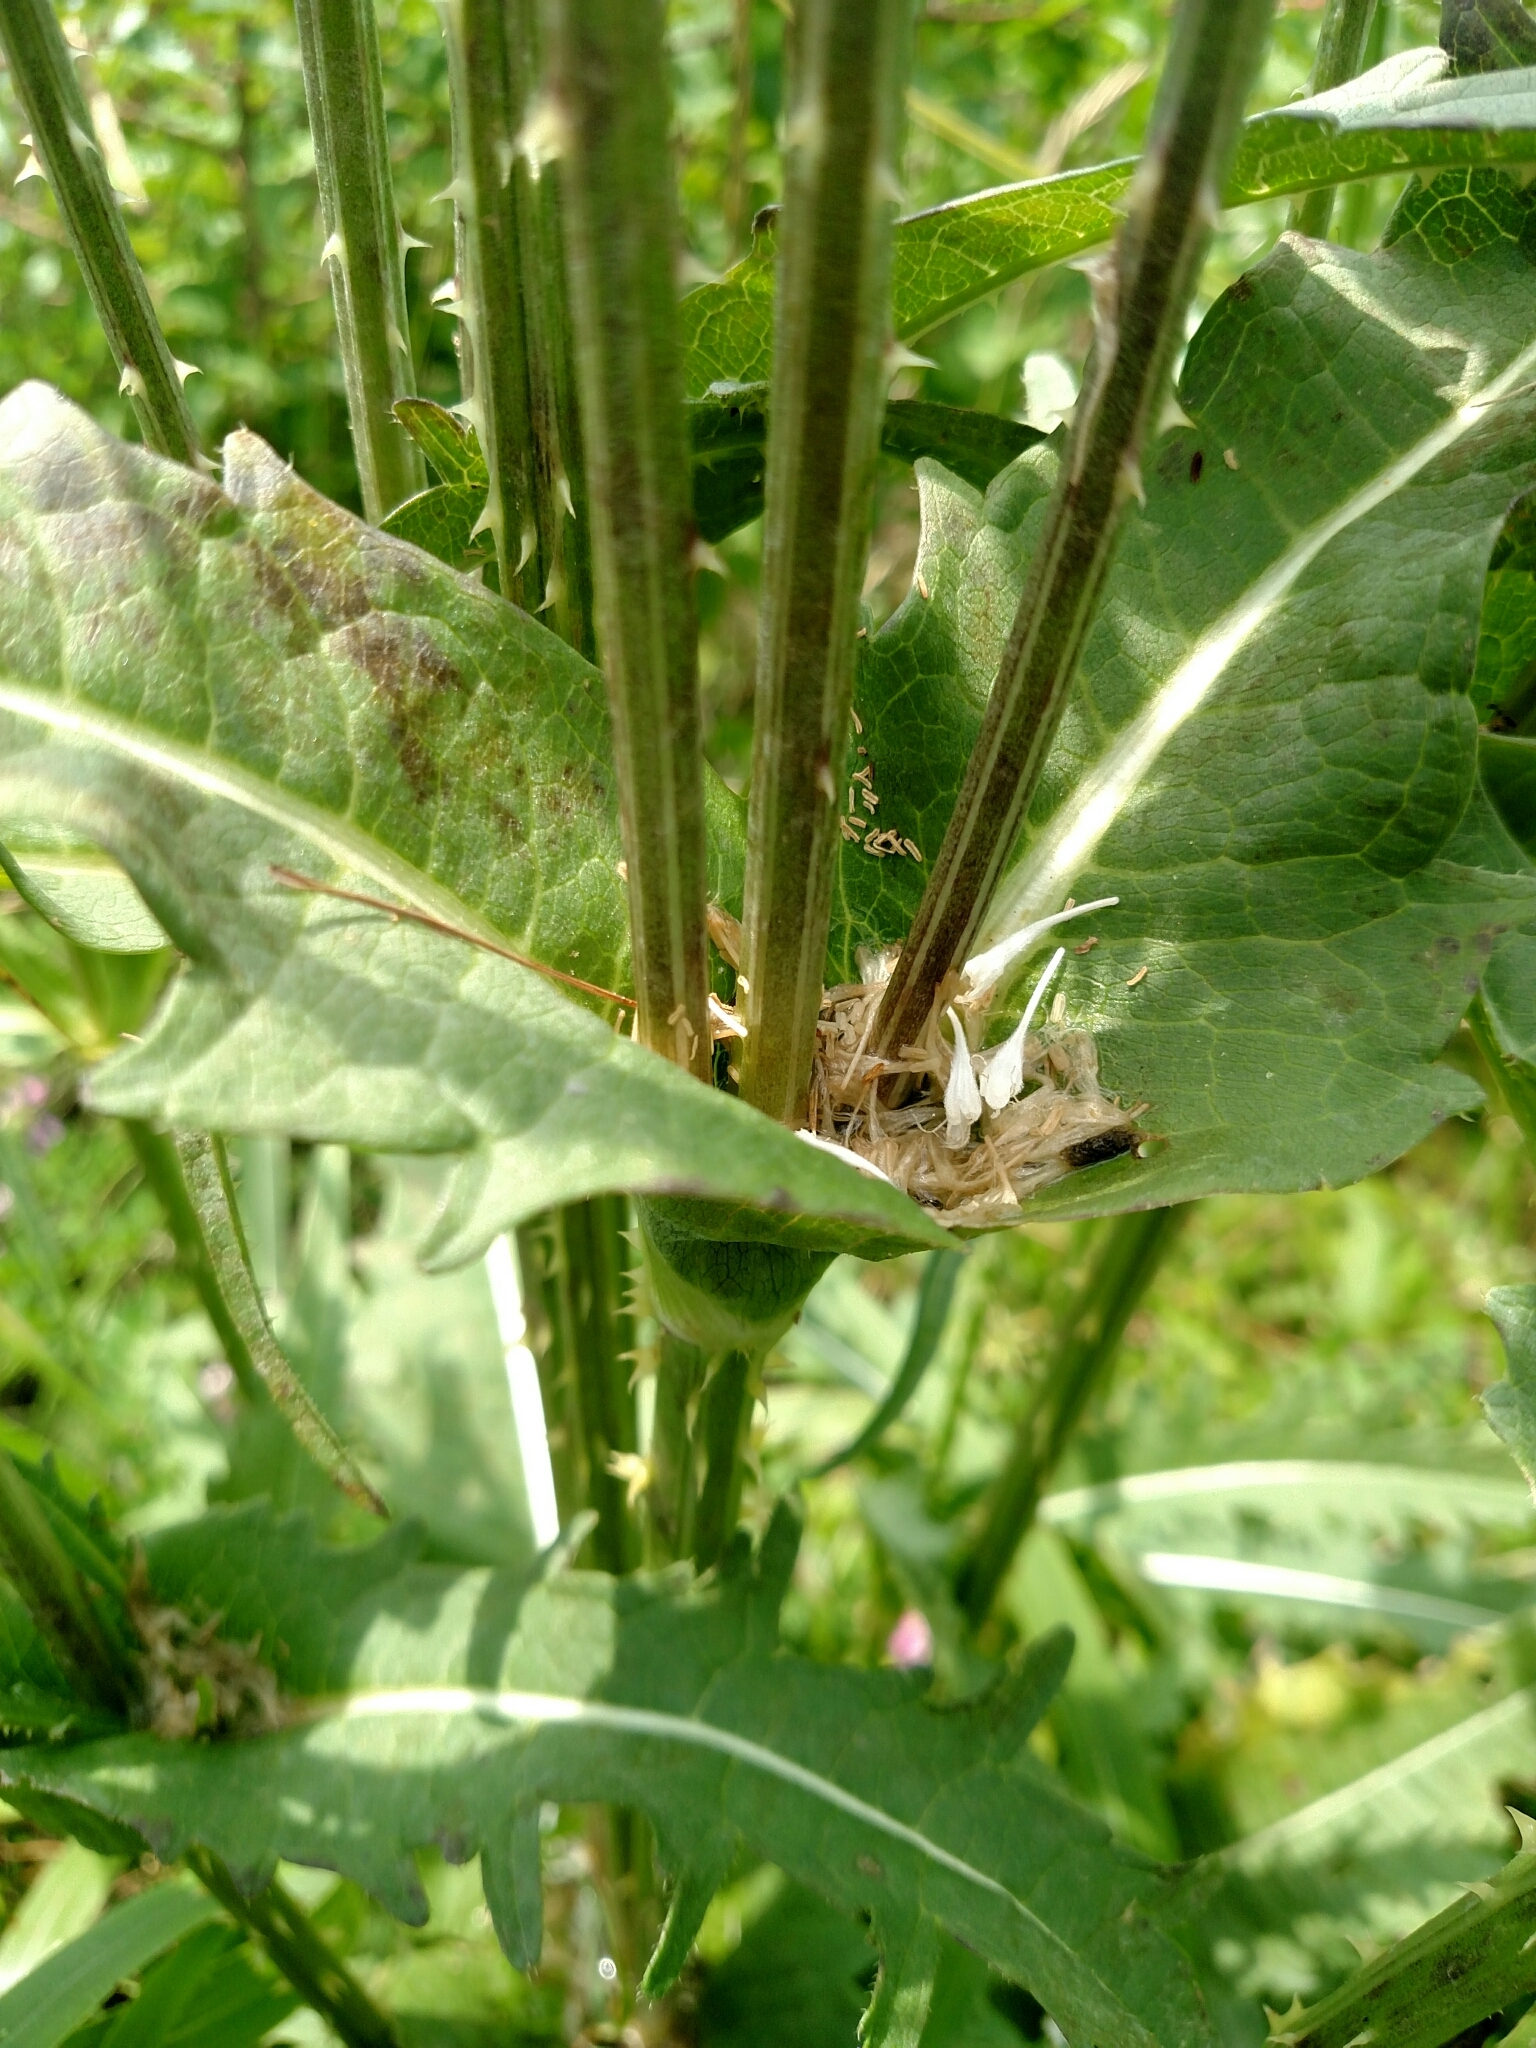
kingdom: Plantae
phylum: Tracheophyta
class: Magnoliopsida
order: Dipsacales
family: Caprifoliaceae
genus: Dipsacus
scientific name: Dipsacus laciniatus
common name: Cut-leaved teasel
